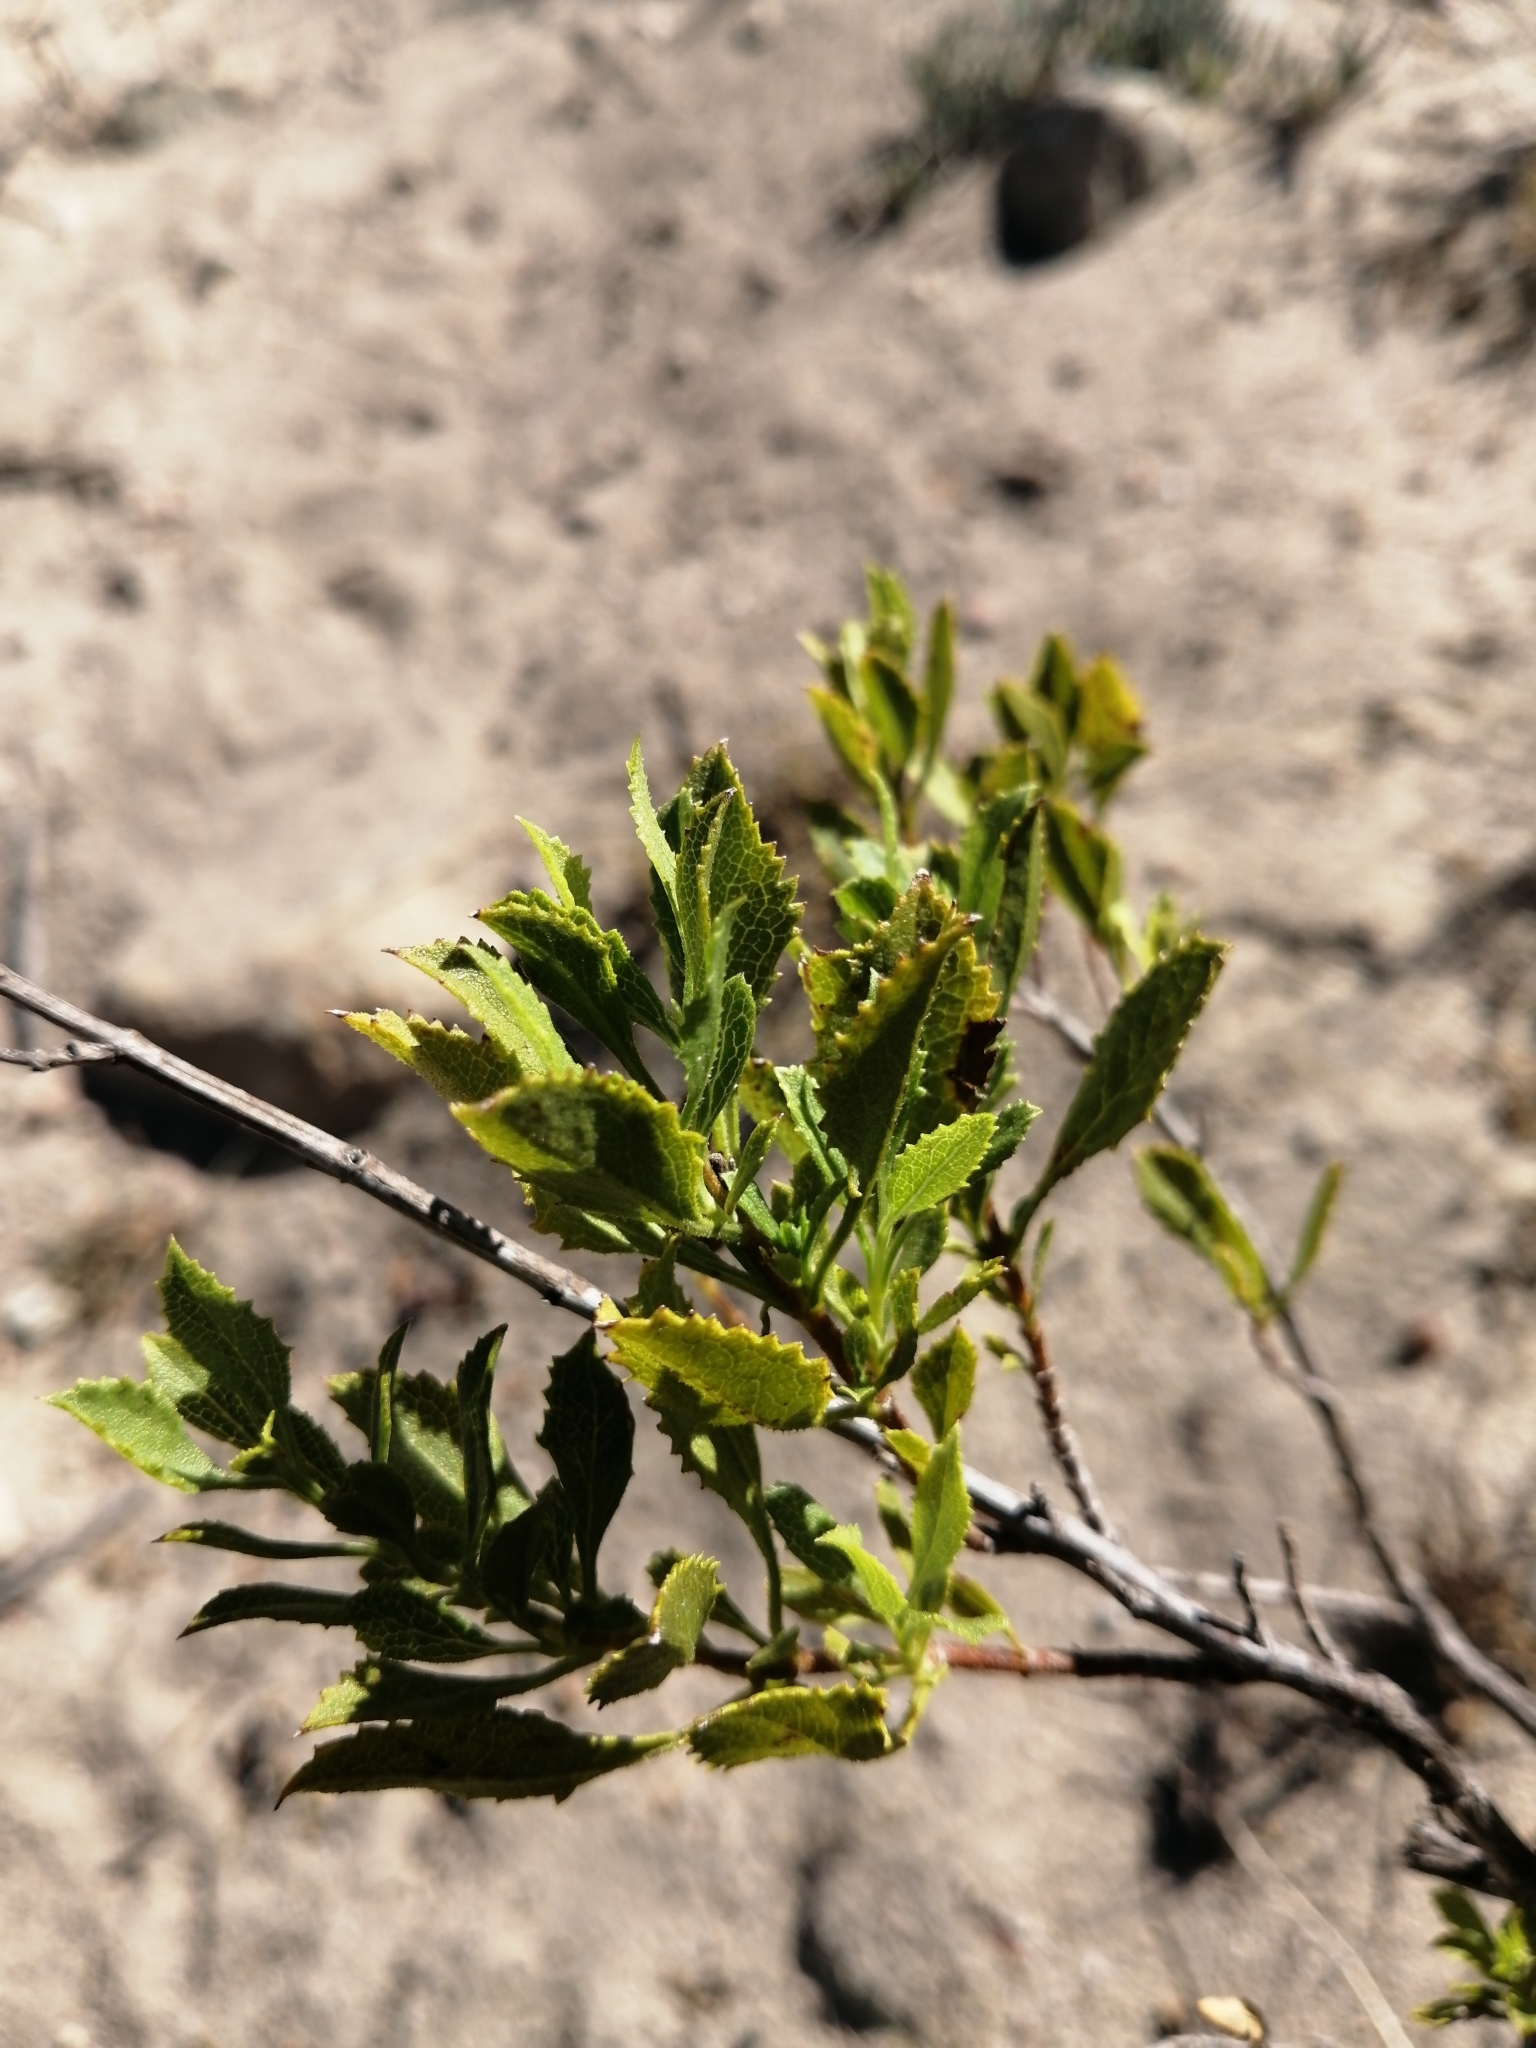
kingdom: Plantae
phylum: Tracheophyta
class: Magnoliopsida
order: Lamiales
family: Lamiaceae
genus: Salvia
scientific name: Salvia chamelaeagnea
